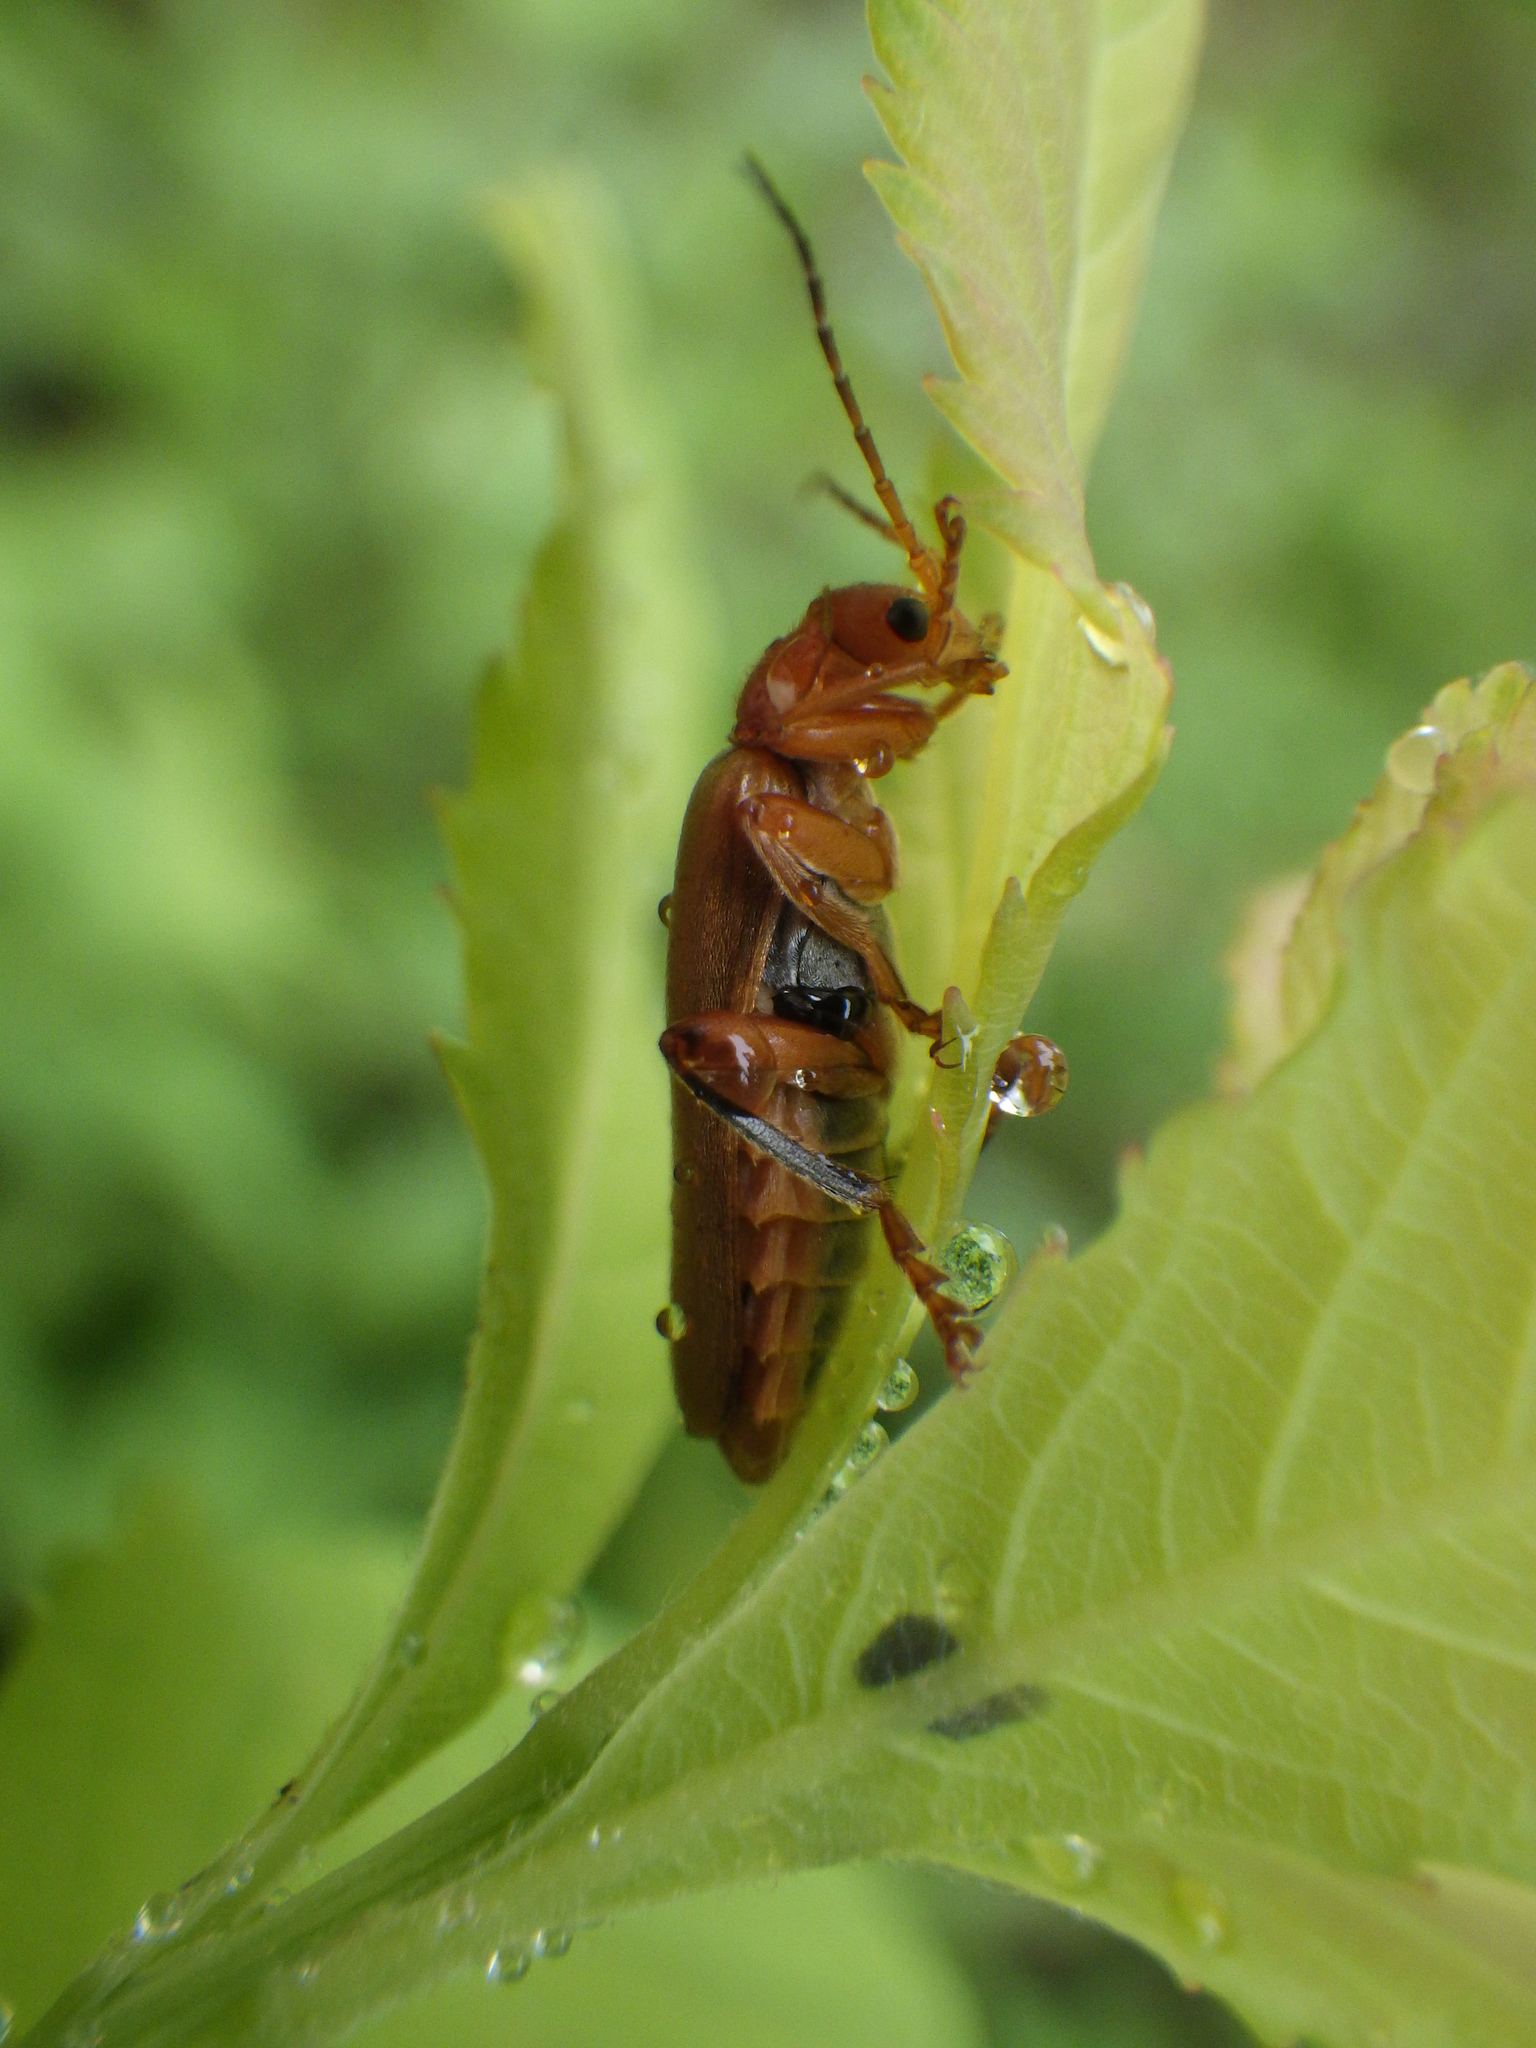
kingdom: Animalia
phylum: Arthropoda
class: Insecta
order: Coleoptera
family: Cantharidae
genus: Cantharis
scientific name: Cantharis livida
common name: Livid soldier beetle
